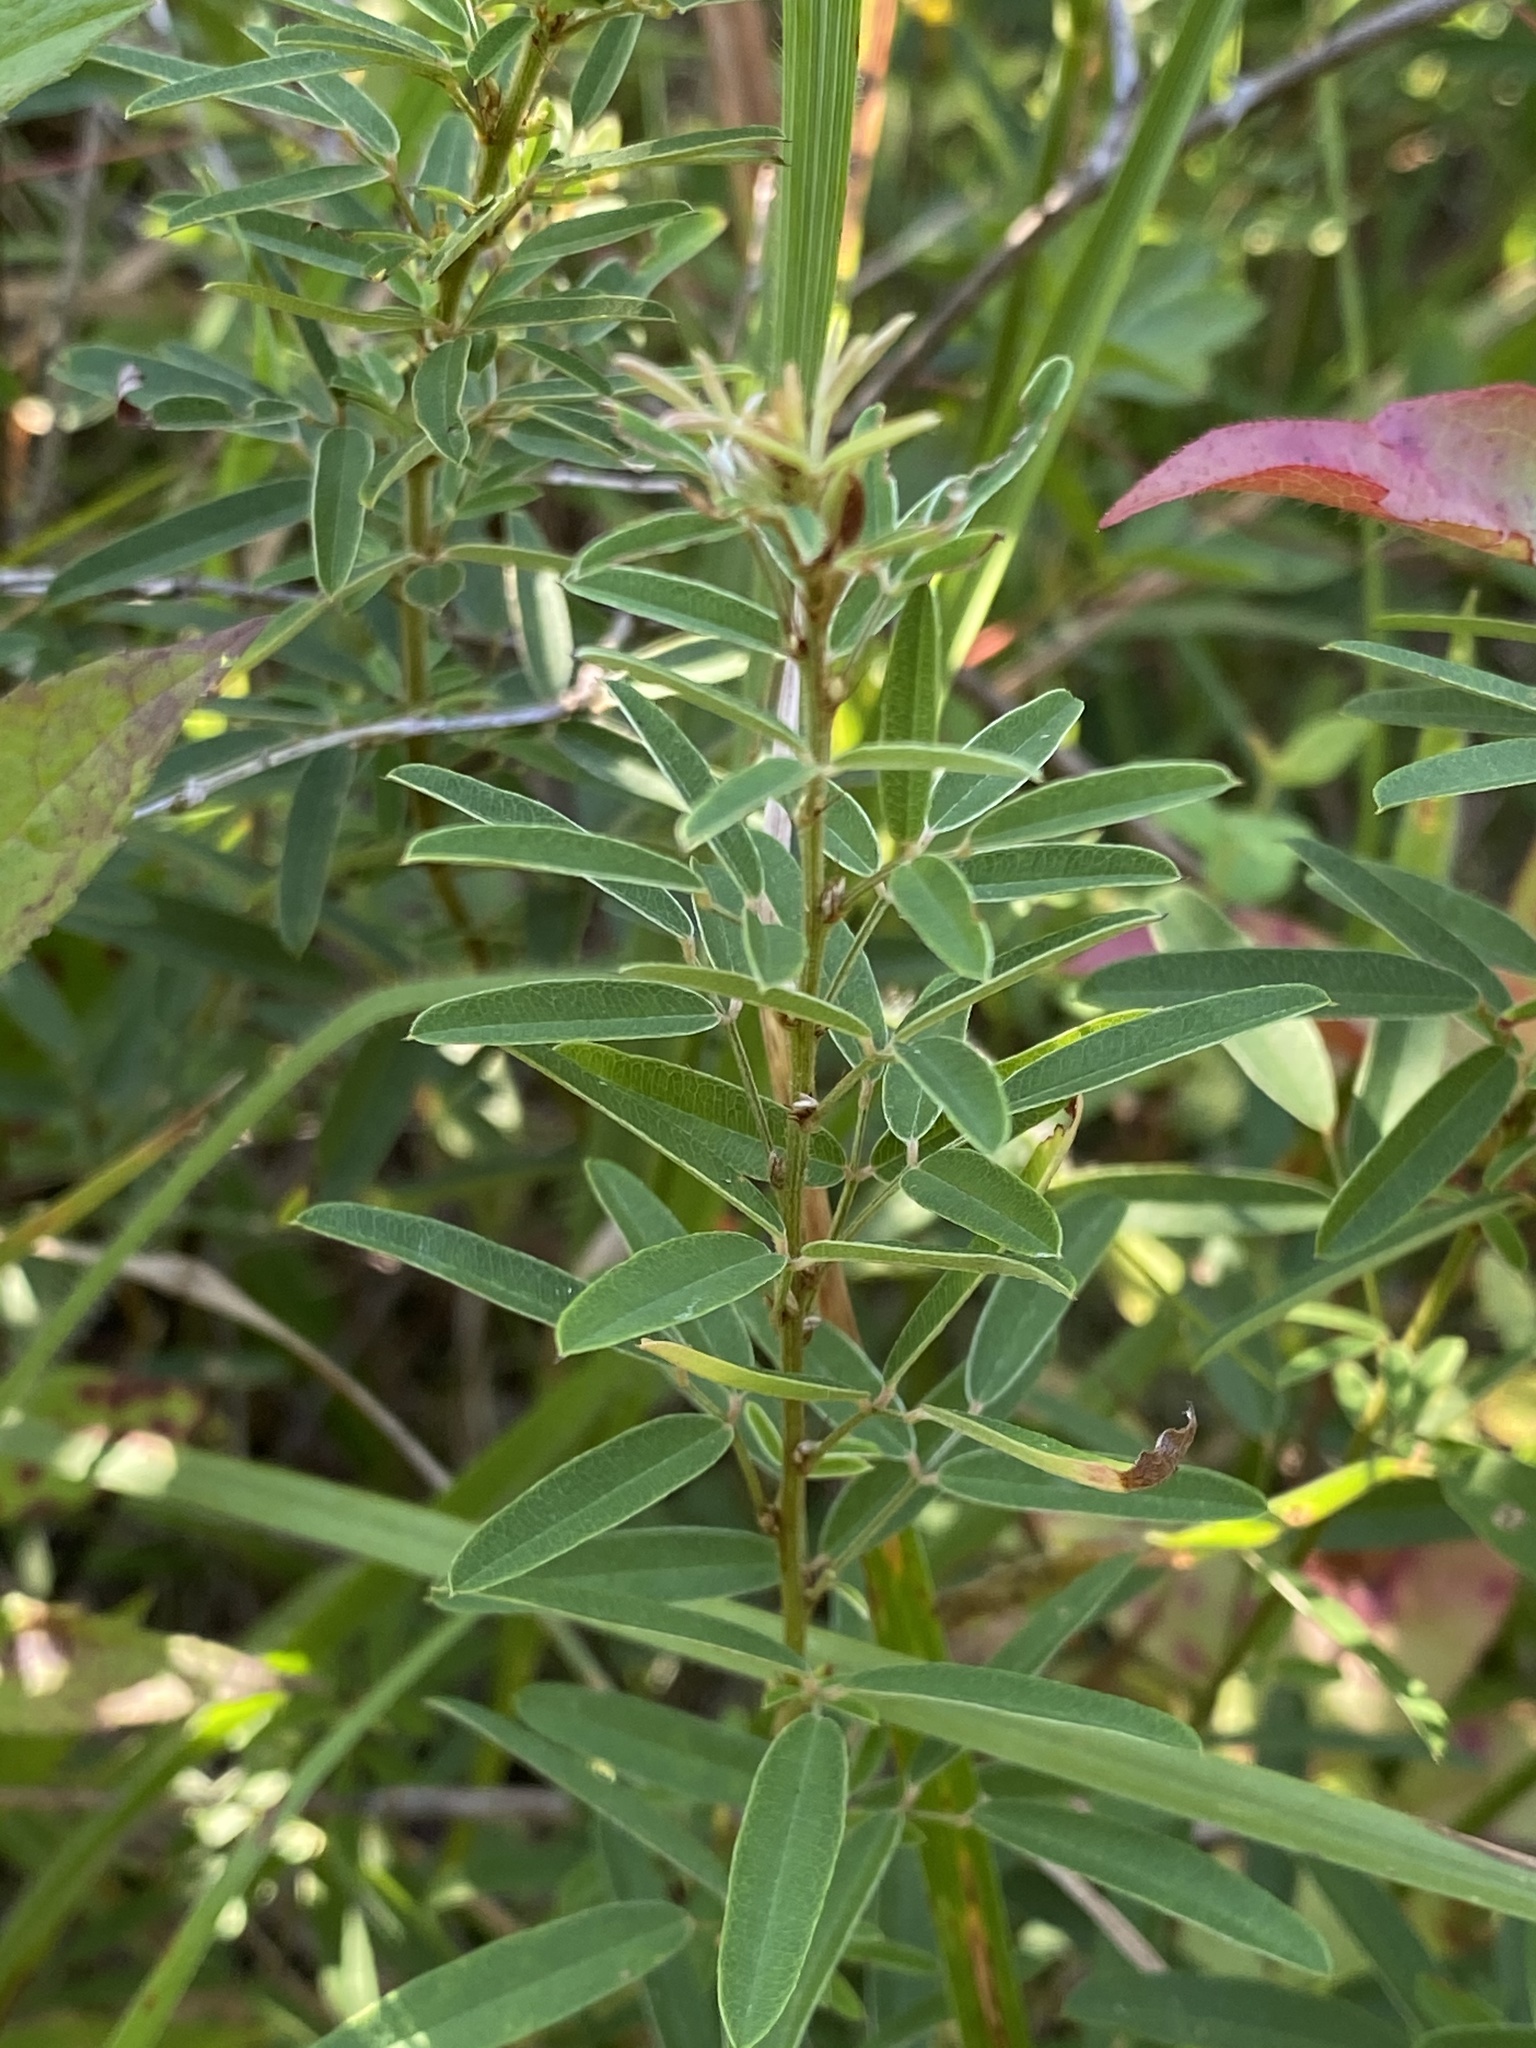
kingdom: Plantae
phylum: Tracheophyta
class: Magnoliopsida
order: Fabales
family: Fabaceae
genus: Lespedeza
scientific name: Lespedeza virginica
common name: Slender bush-clover
